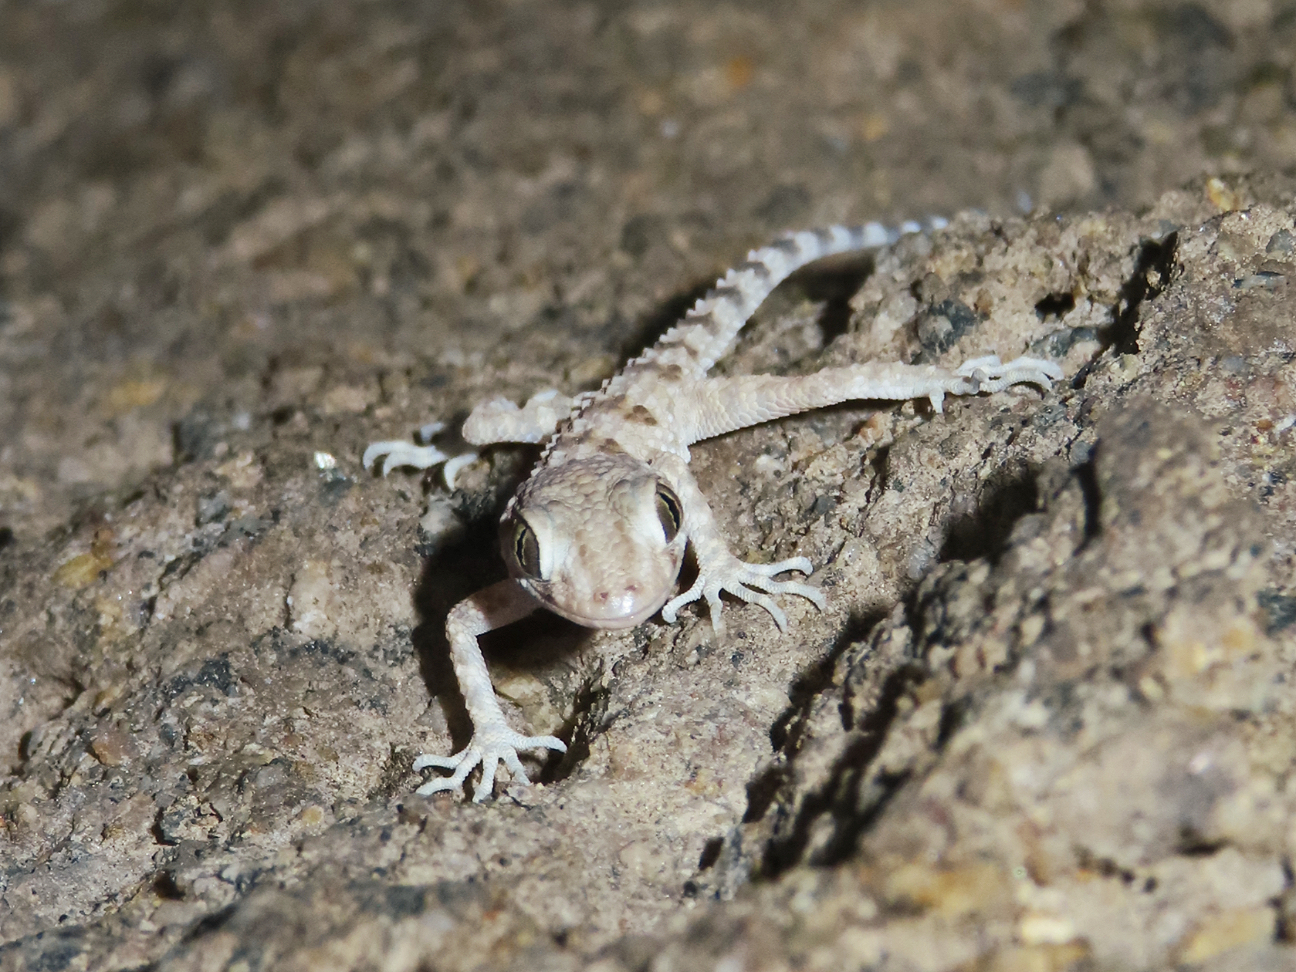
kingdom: Animalia
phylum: Chordata
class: Squamata
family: Gekkonidae
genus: Tenuidactylus
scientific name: Tenuidactylus caspius
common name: Caspian bent-toed gecko
